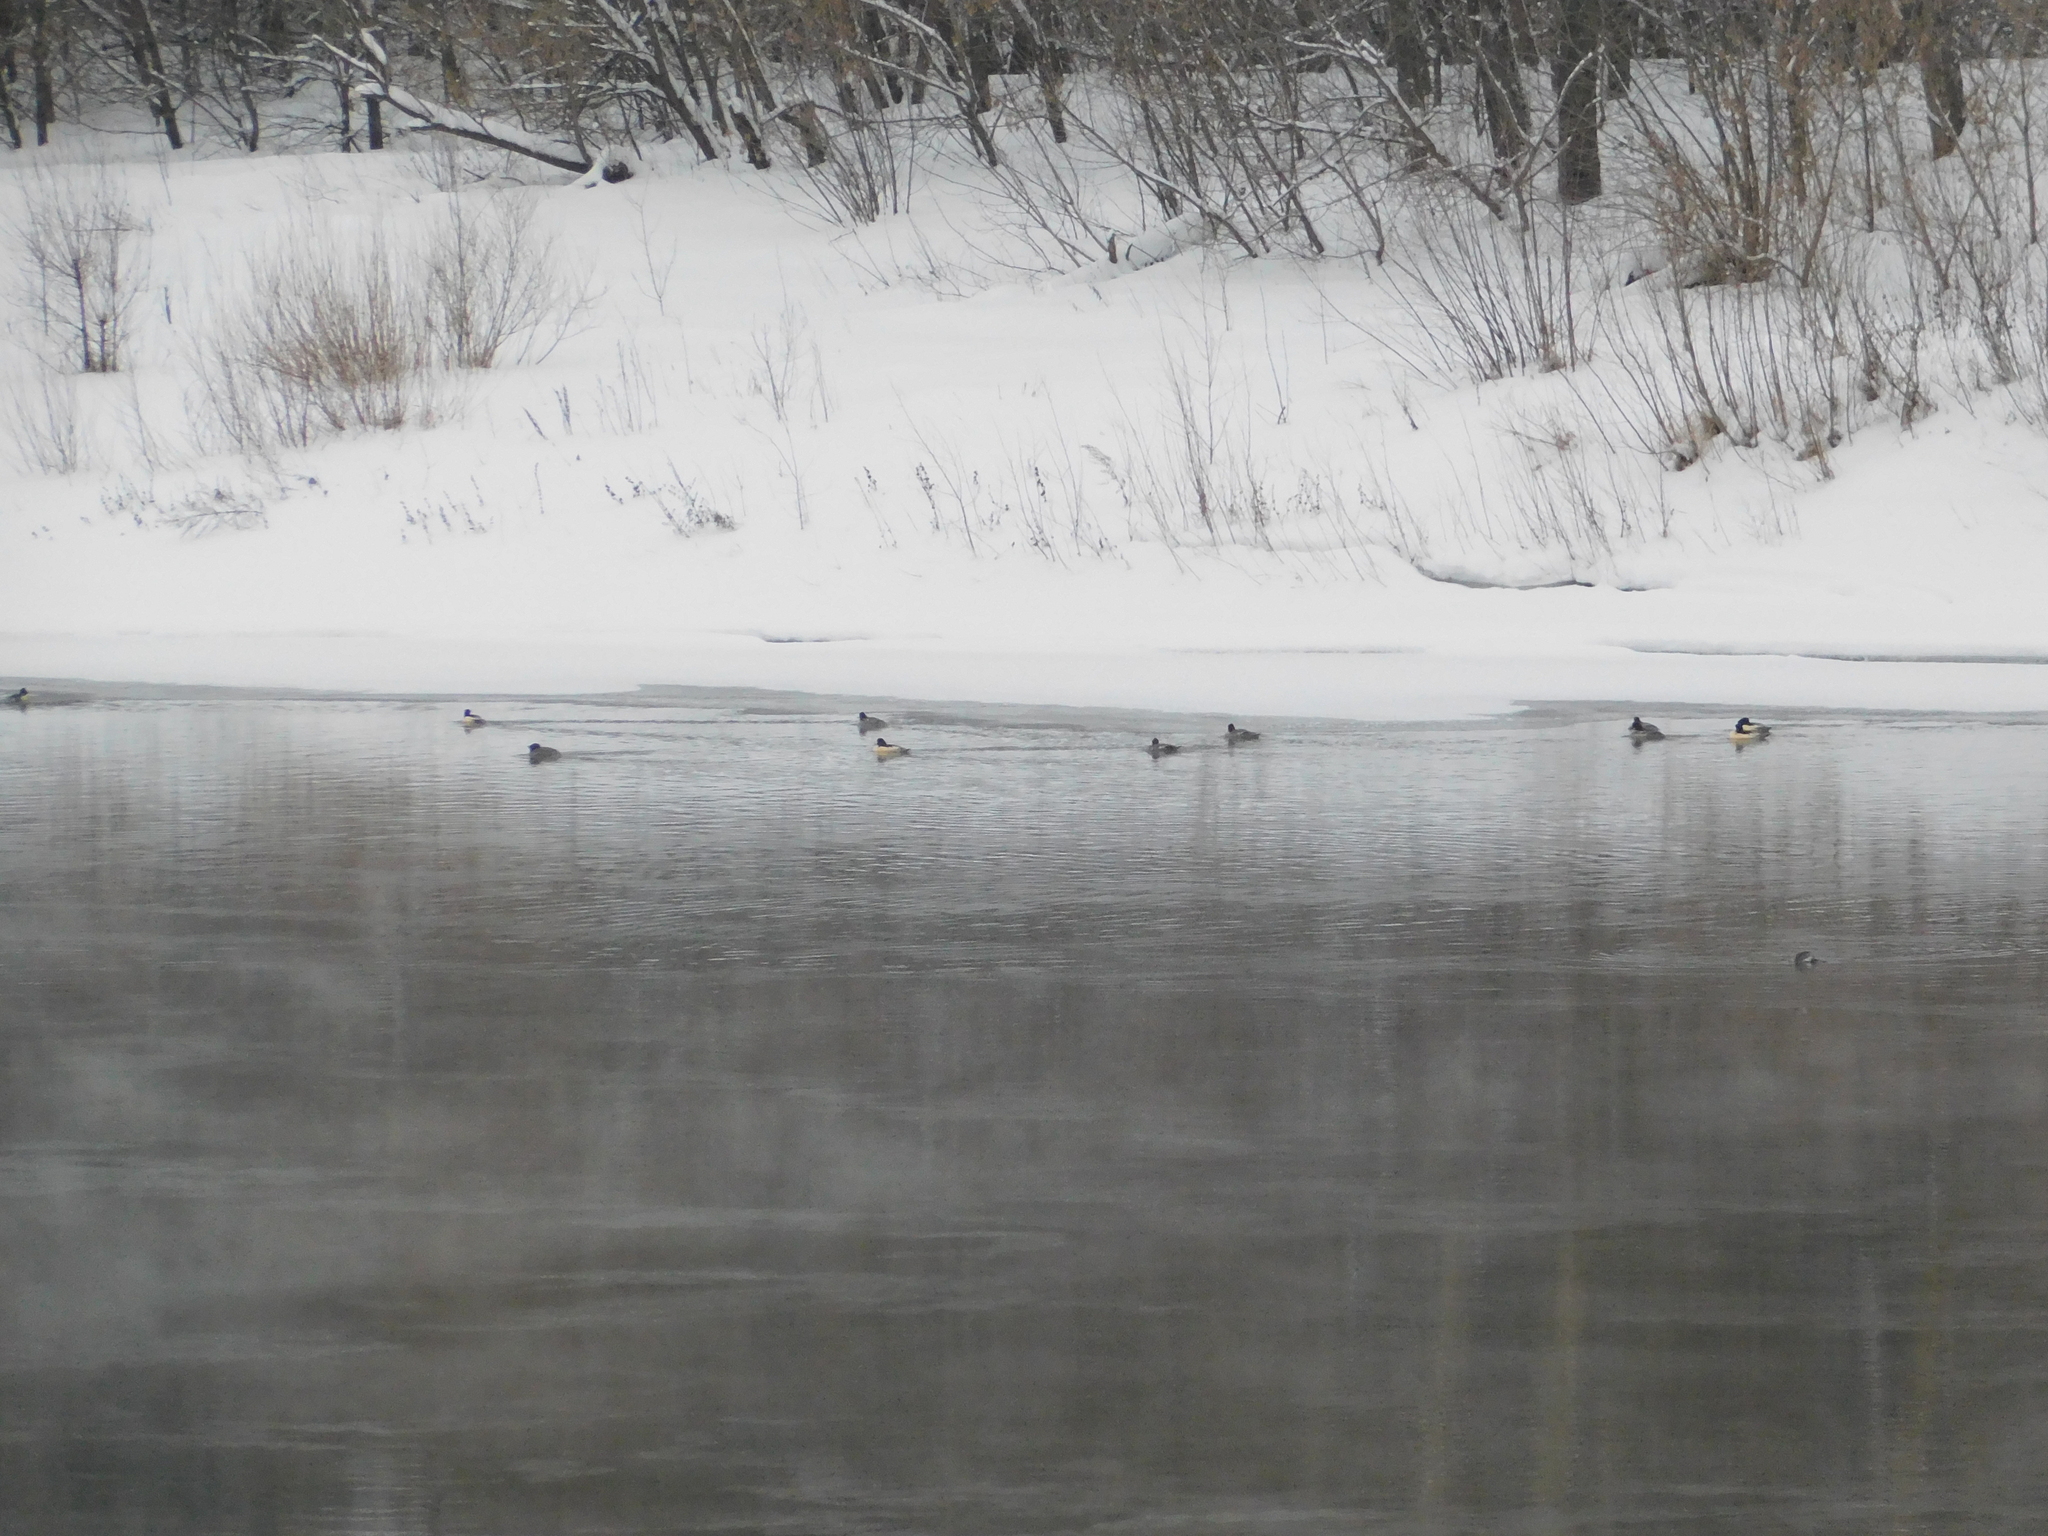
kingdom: Animalia
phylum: Chordata
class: Aves
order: Anseriformes
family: Anatidae
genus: Mergus
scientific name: Mergus merganser
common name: Common merganser
